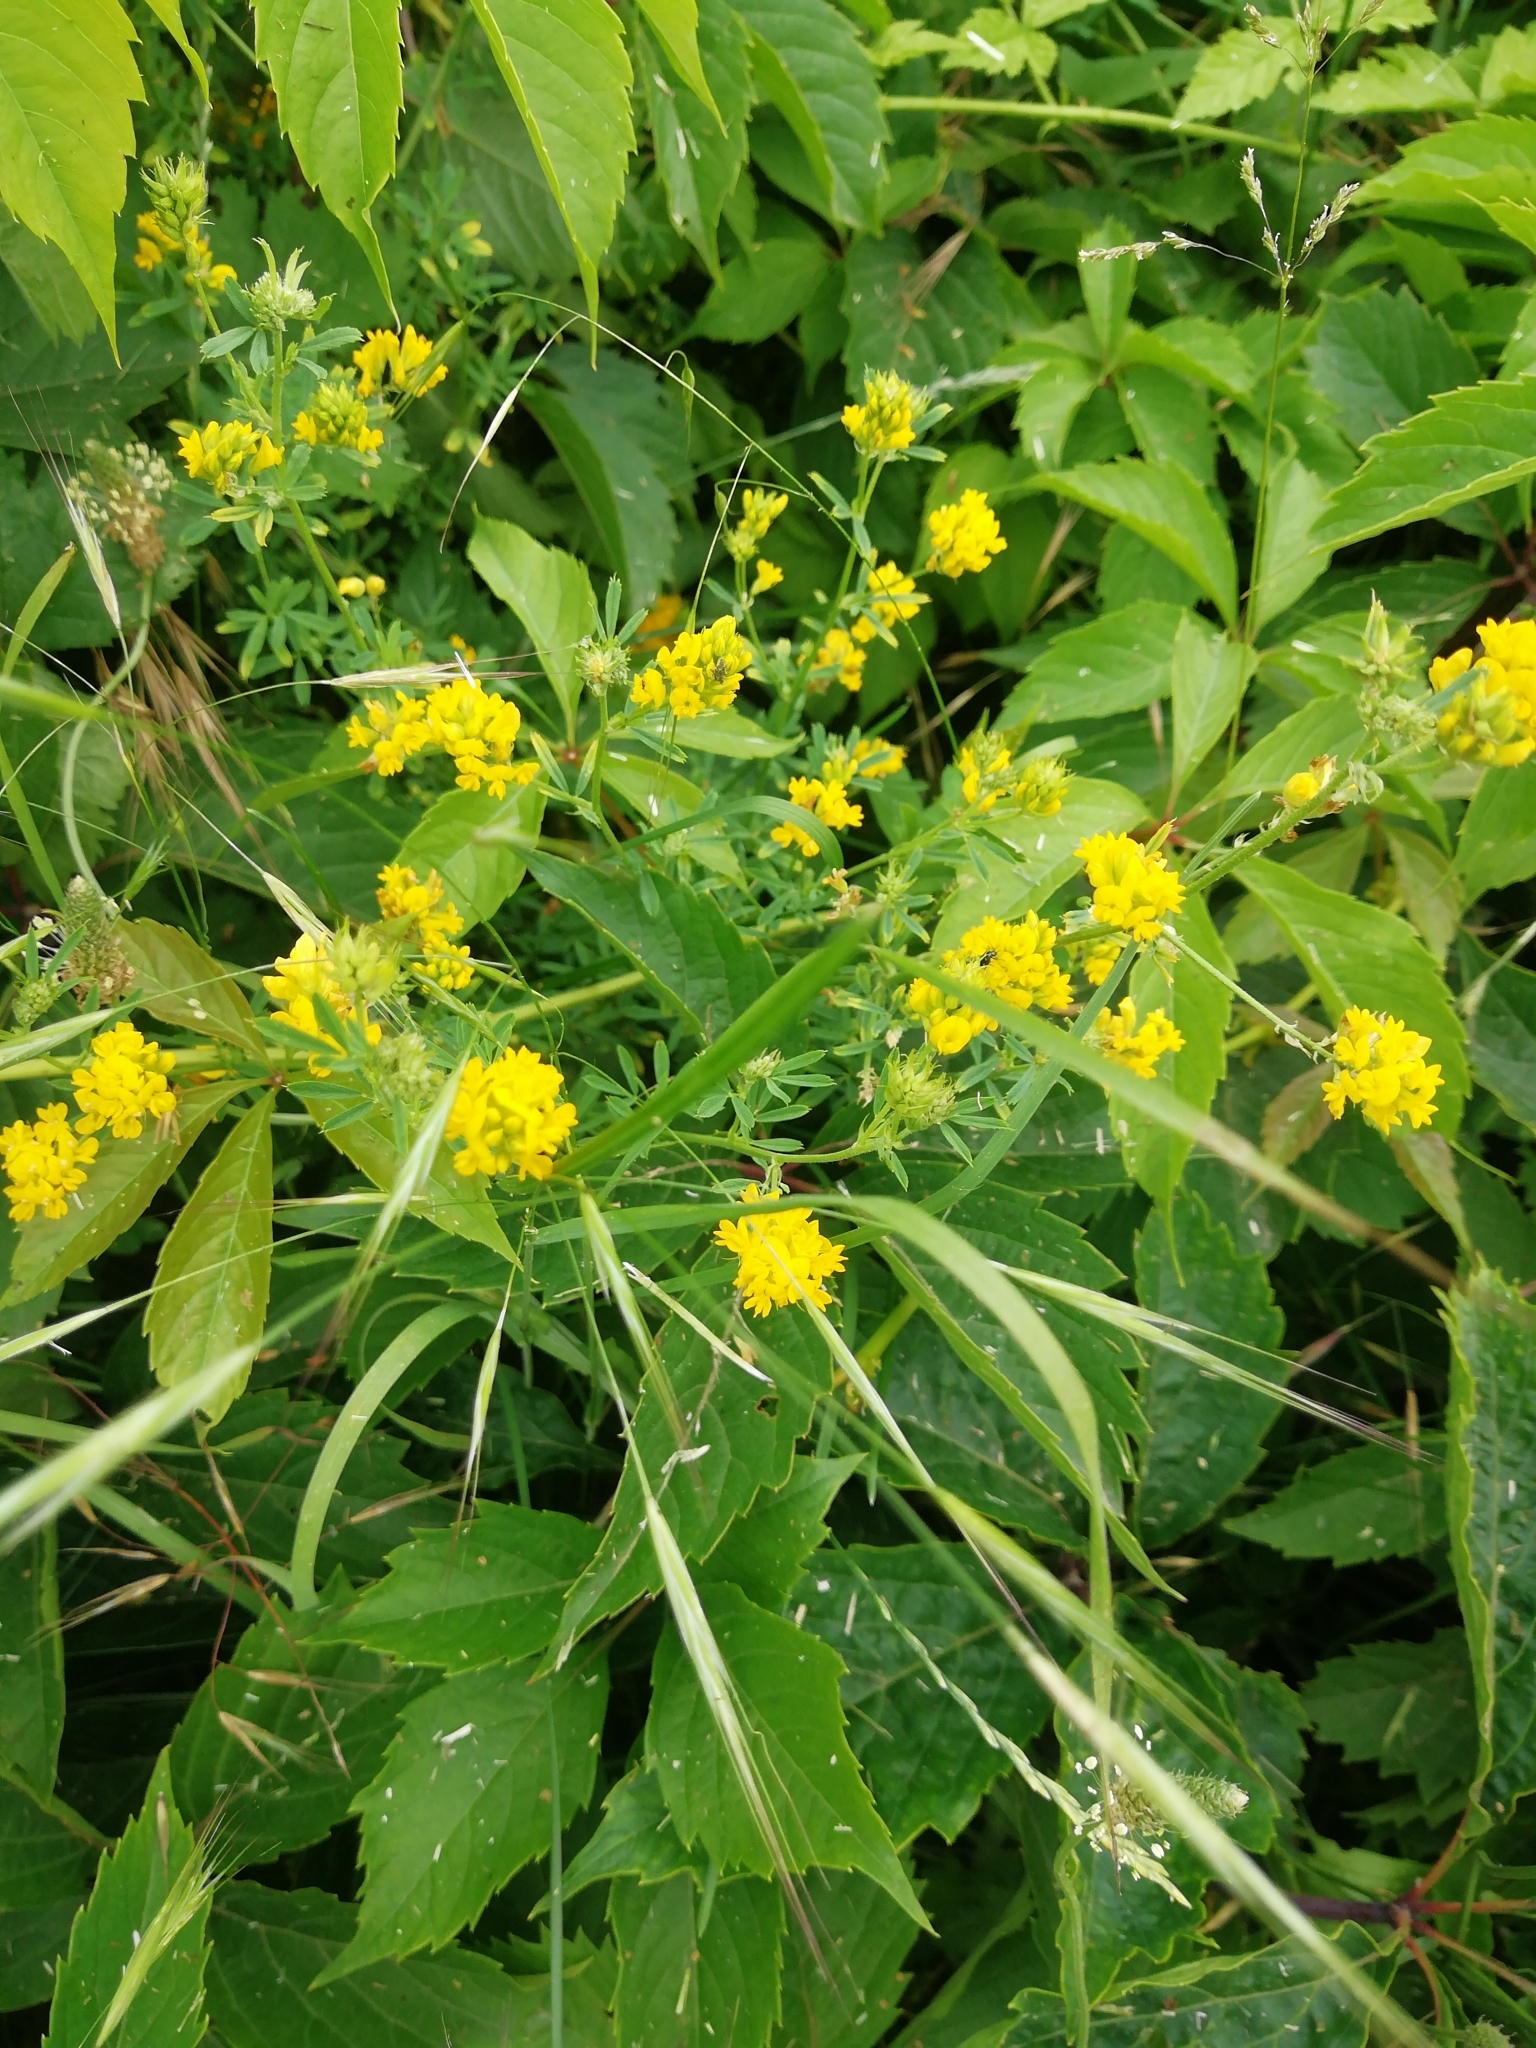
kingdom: Plantae
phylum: Tracheophyta
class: Magnoliopsida
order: Fabales
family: Fabaceae
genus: Medicago
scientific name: Medicago falcata
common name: Sickle medick
